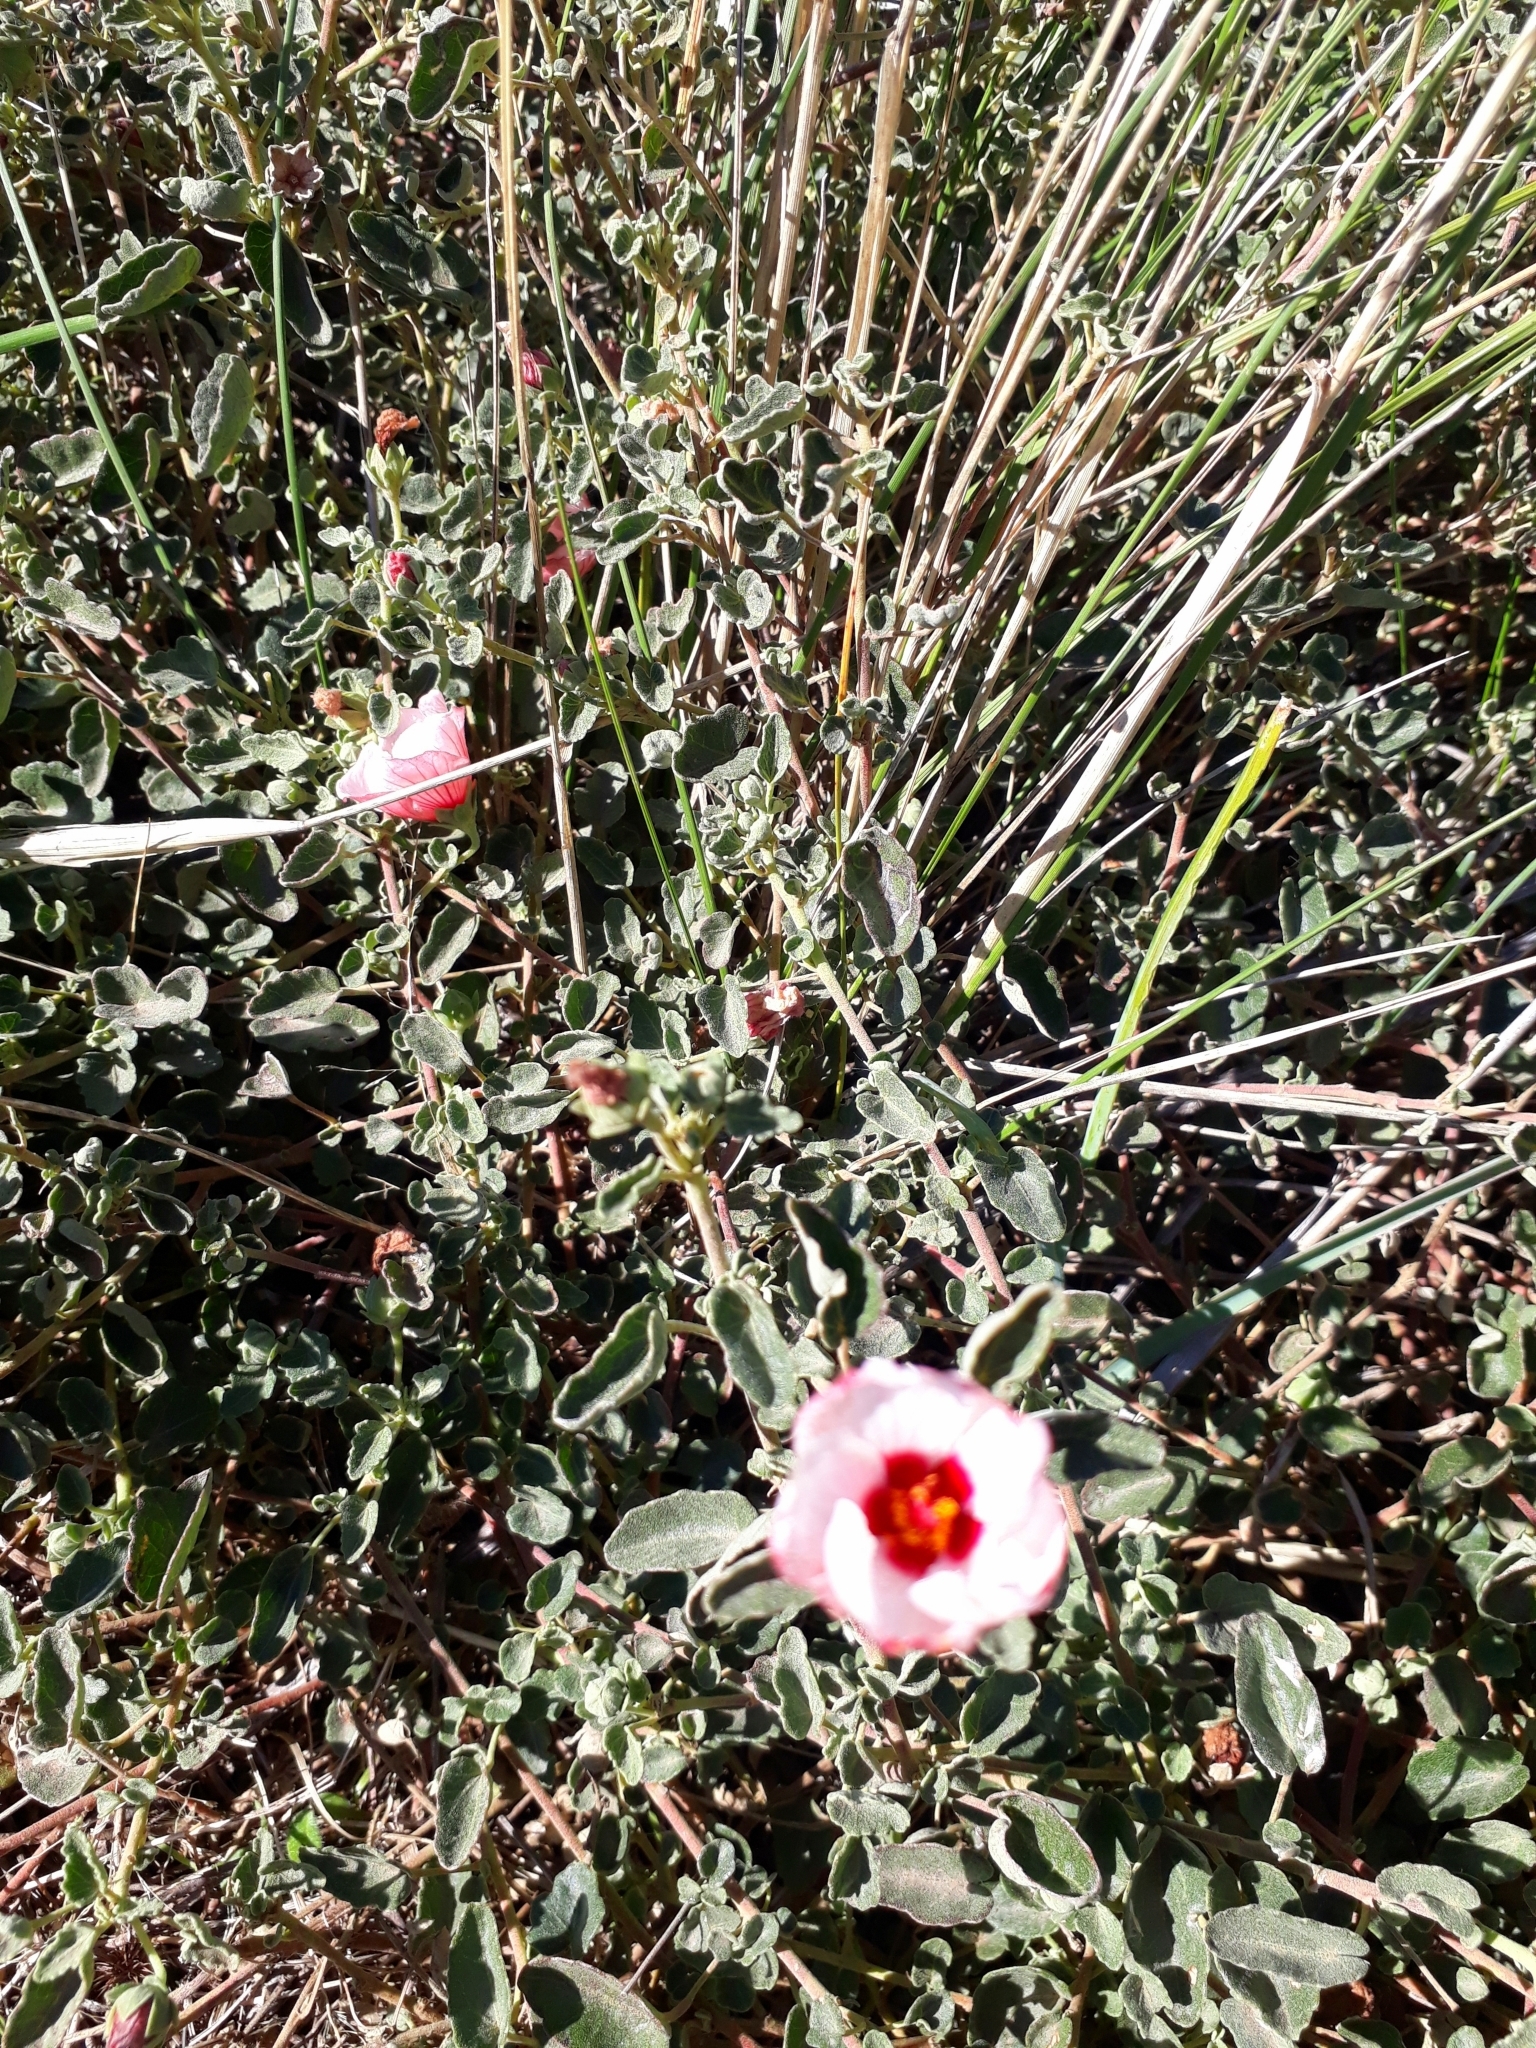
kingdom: Plantae
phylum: Tracheophyta
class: Magnoliopsida
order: Malvales
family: Malvaceae
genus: Pavonia
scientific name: Pavonia cymbalaria
